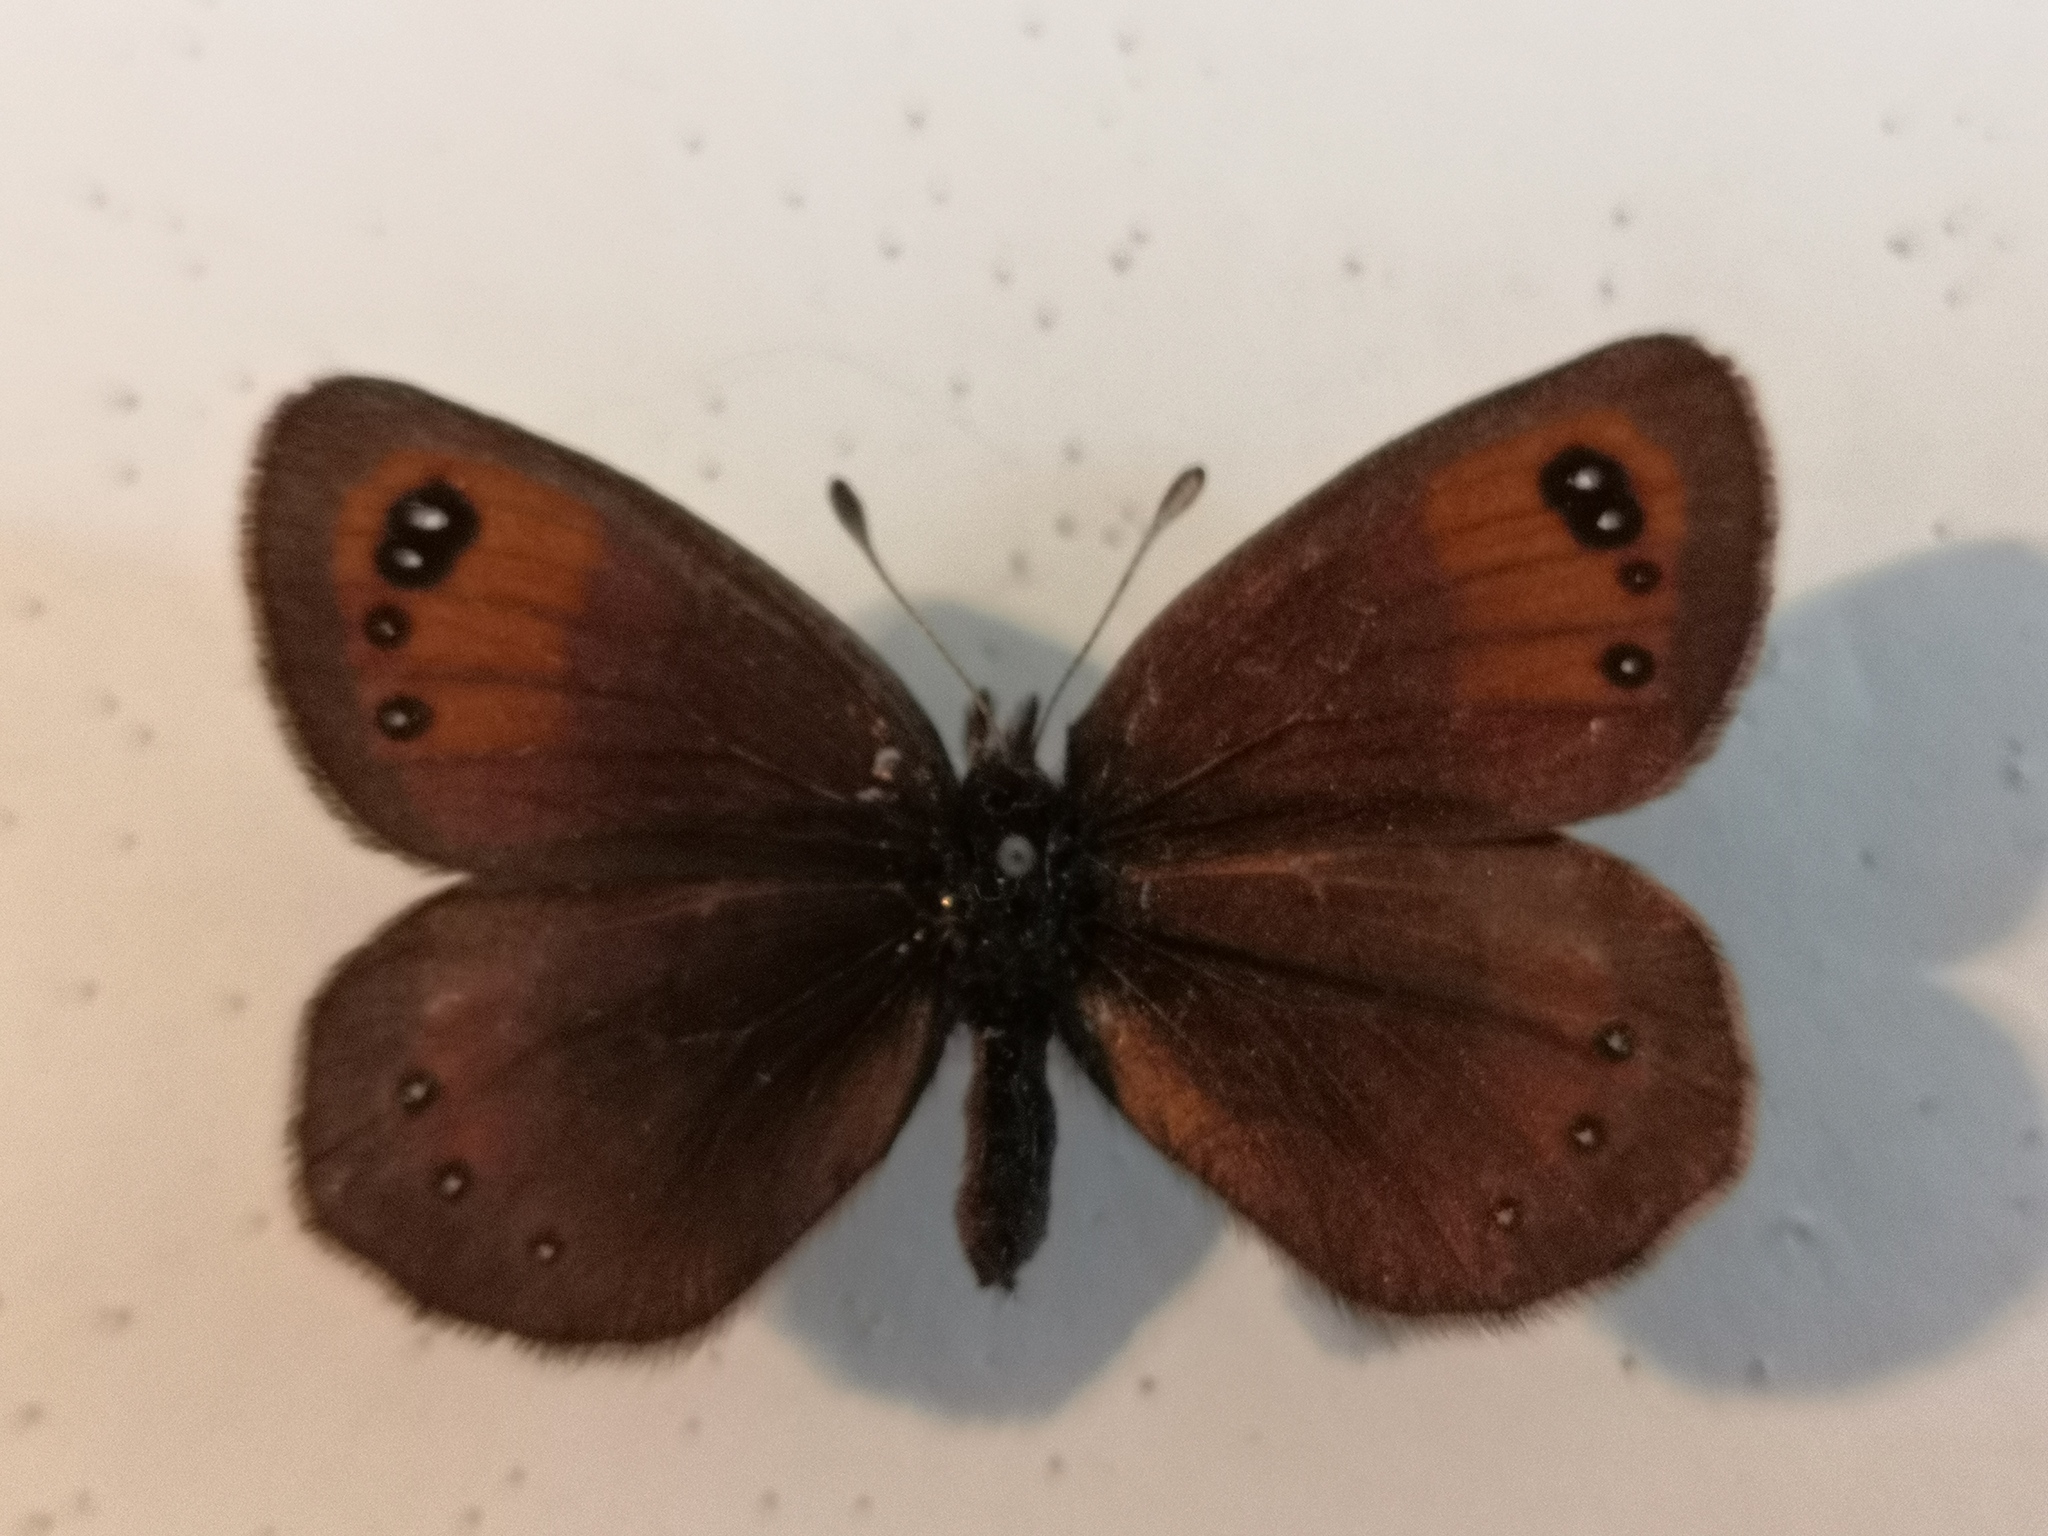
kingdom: Animalia
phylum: Arthropoda
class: Insecta
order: Lepidoptera
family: Nymphalidae
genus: Erebia
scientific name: Erebia gorge
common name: Silky ringlet
